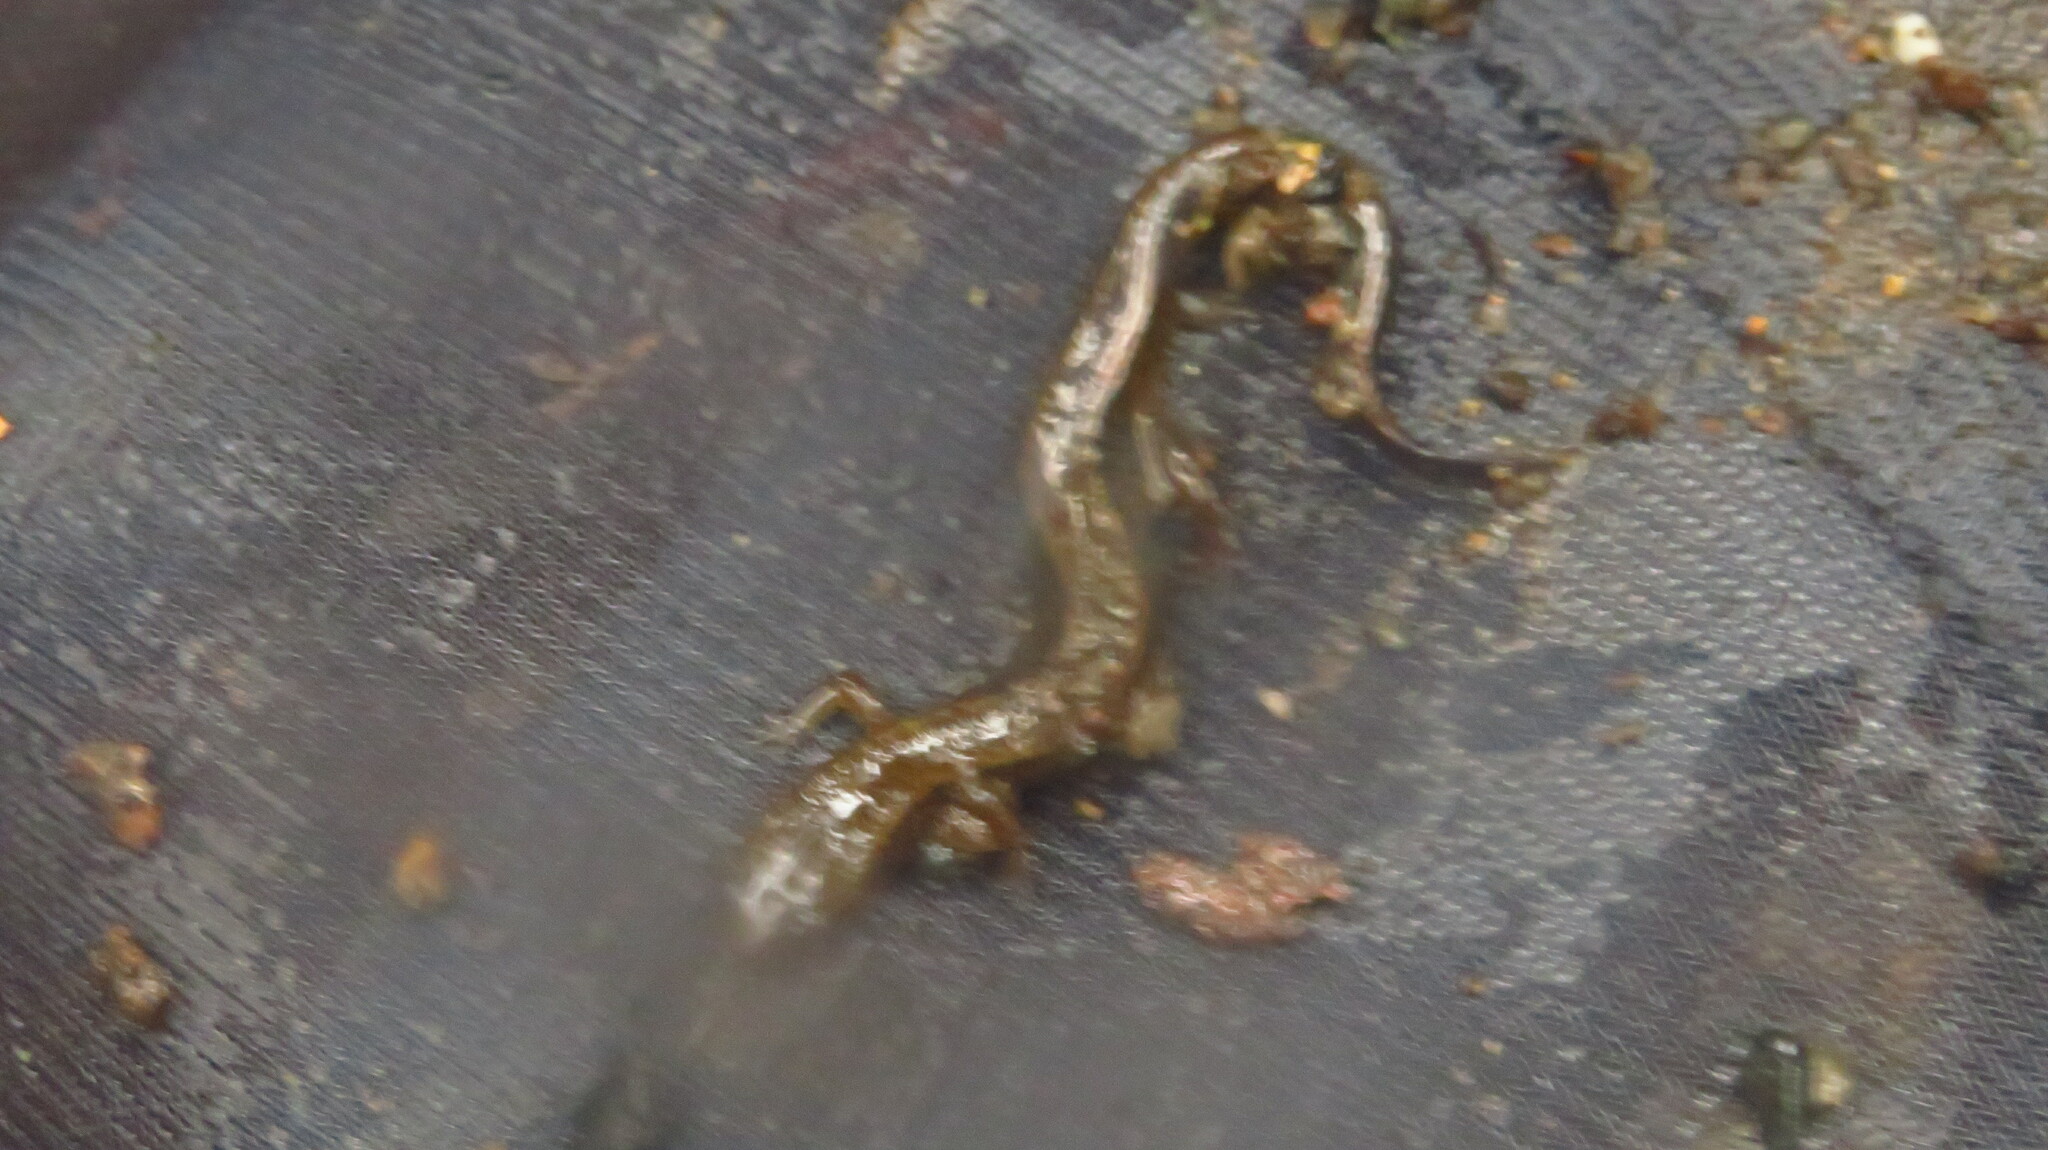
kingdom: Animalia
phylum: Chordata
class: Amphibia
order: Caudata
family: Plethodontidae
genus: Eurycea
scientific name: Eurycea bislineata
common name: Northern two-lined salamander
